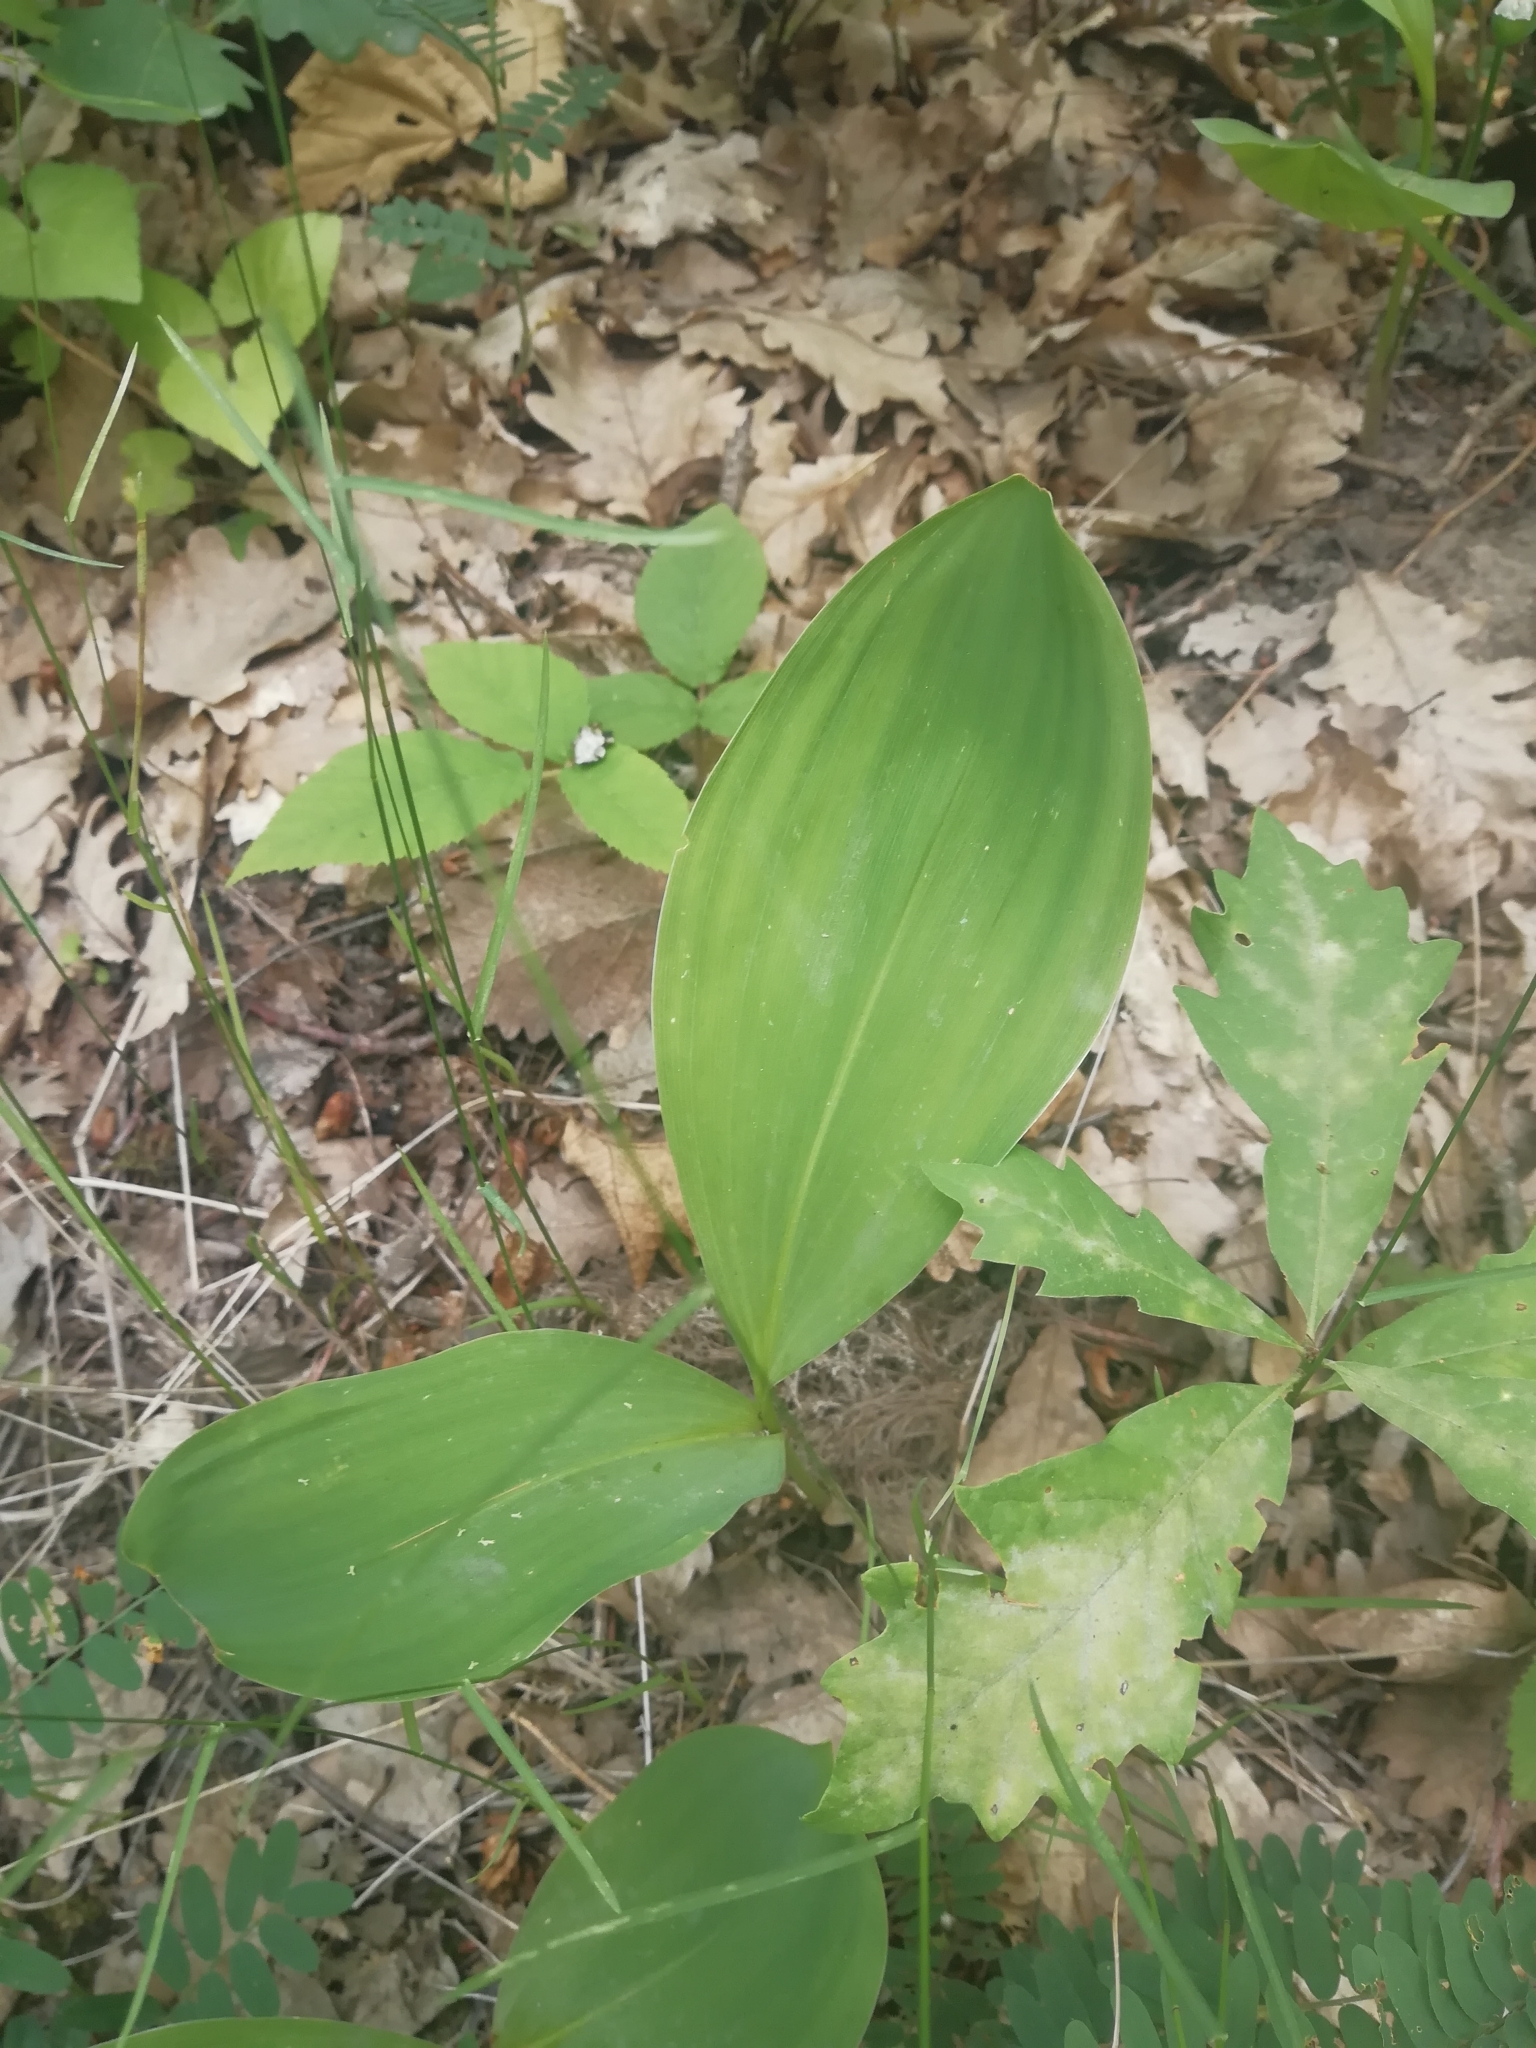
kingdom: Plantae
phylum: Tracheophyta
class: Liliopsida
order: Asparagales
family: Asparagaceae
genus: Convallaria
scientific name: Convallaria majalis
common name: Lily-of-the-valley
